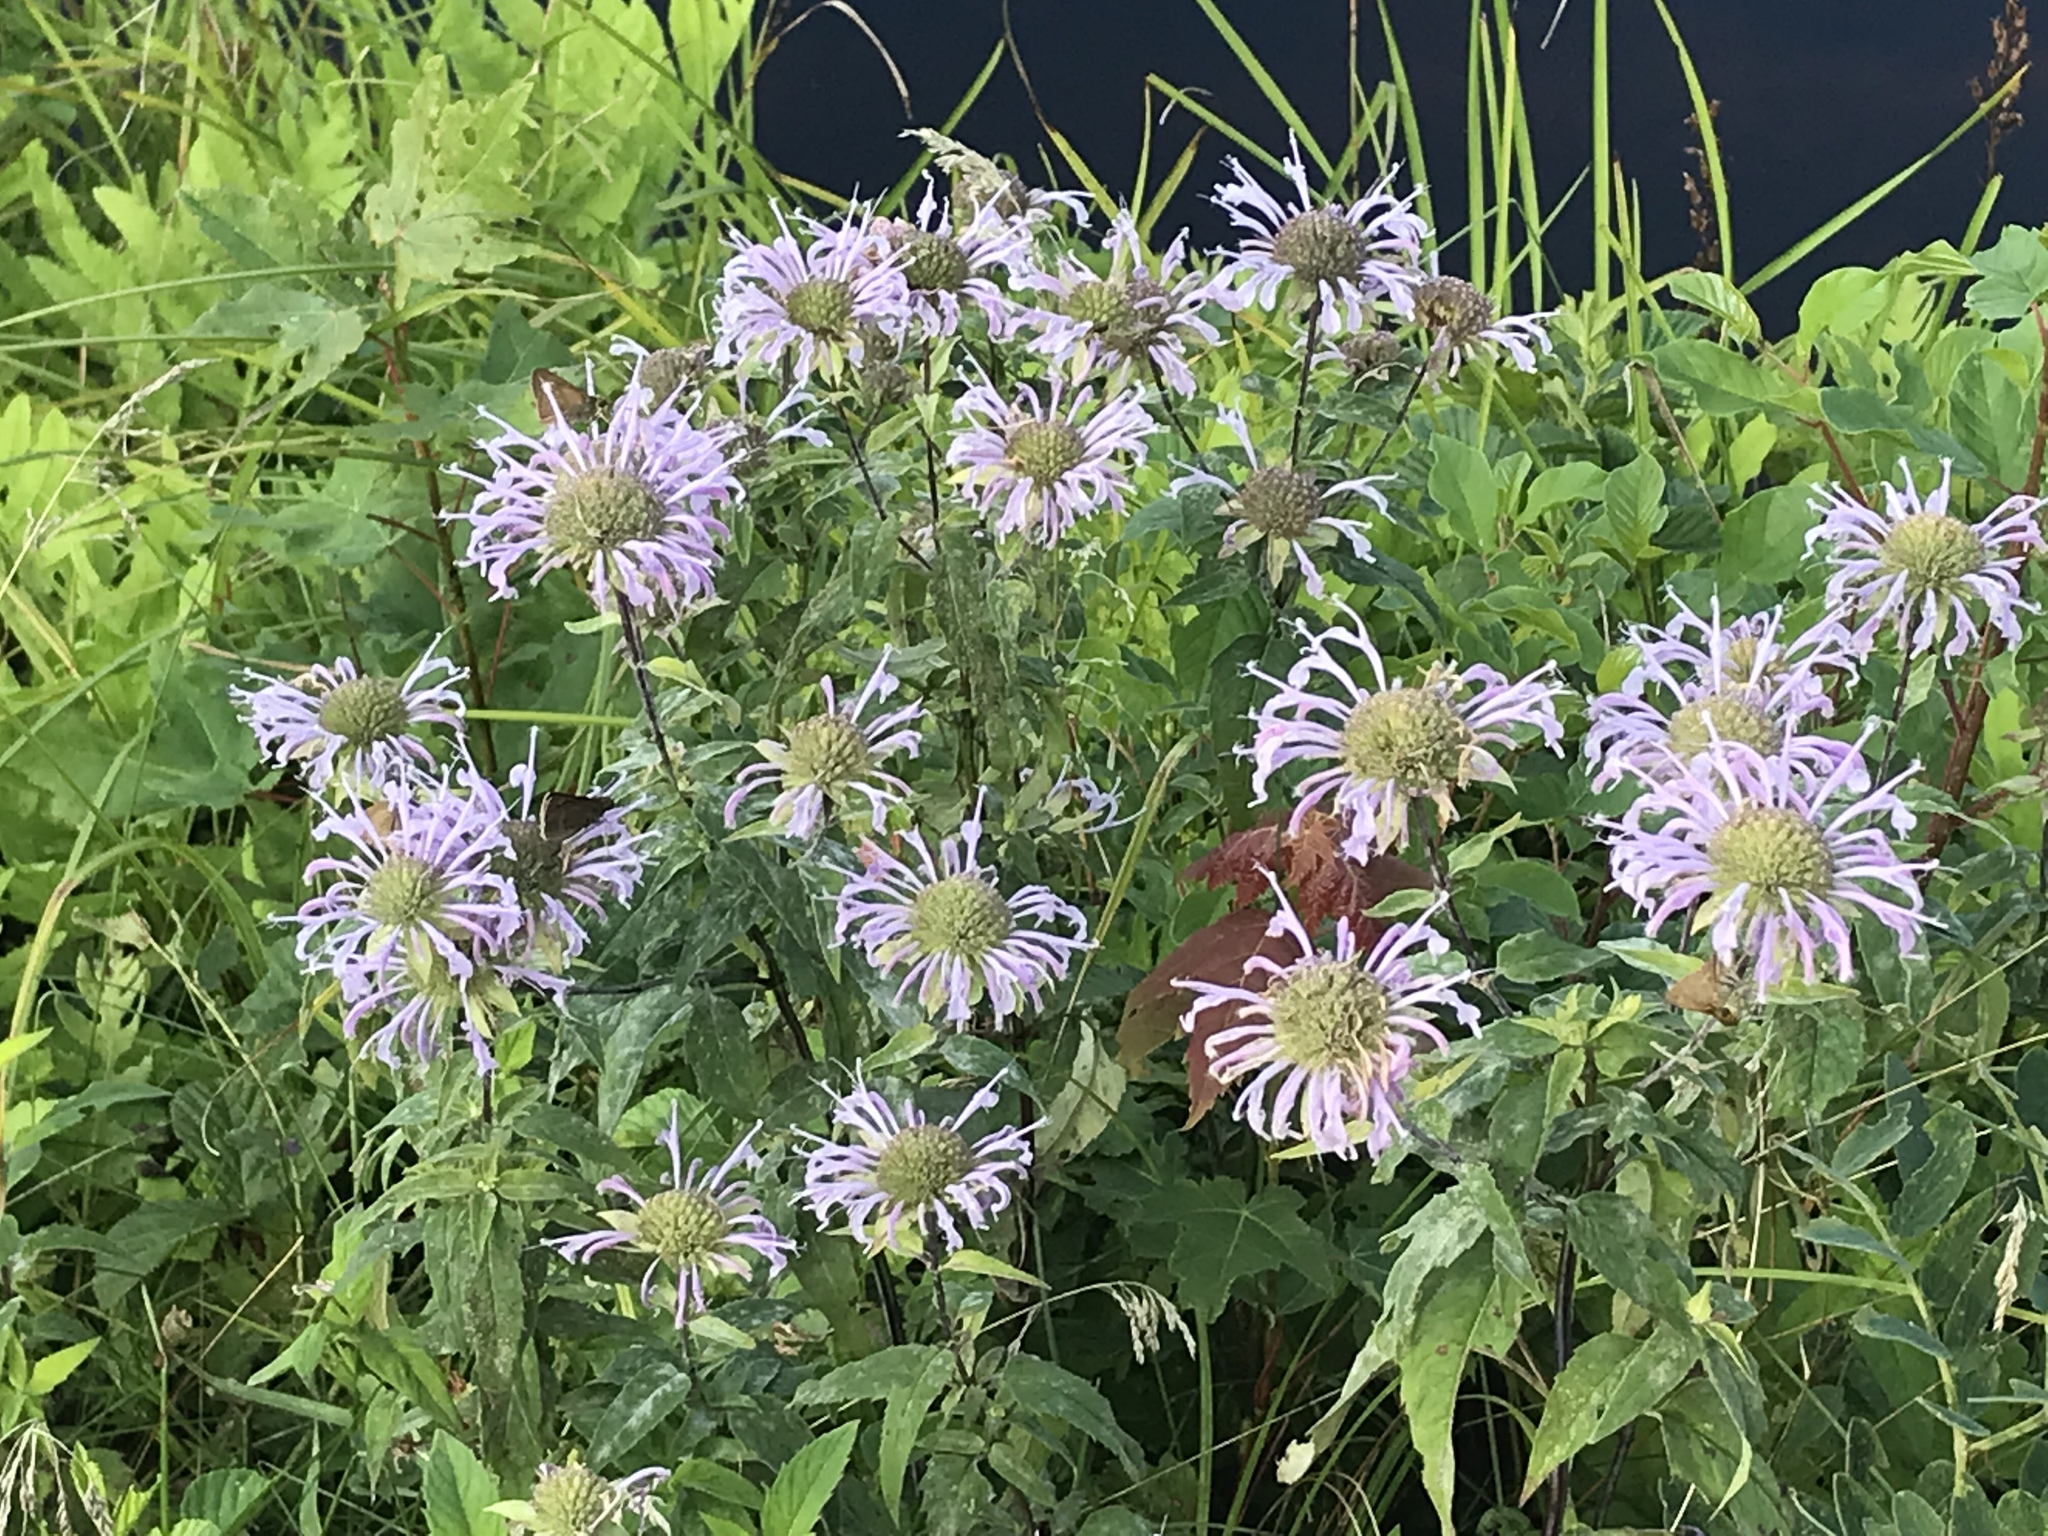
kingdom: Plantae
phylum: Tracheophyta
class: Magnoliopsida
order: Lamiales
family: Lamiaceae
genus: Monarda
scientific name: Monarda fistulosa
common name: Purple beebalm
